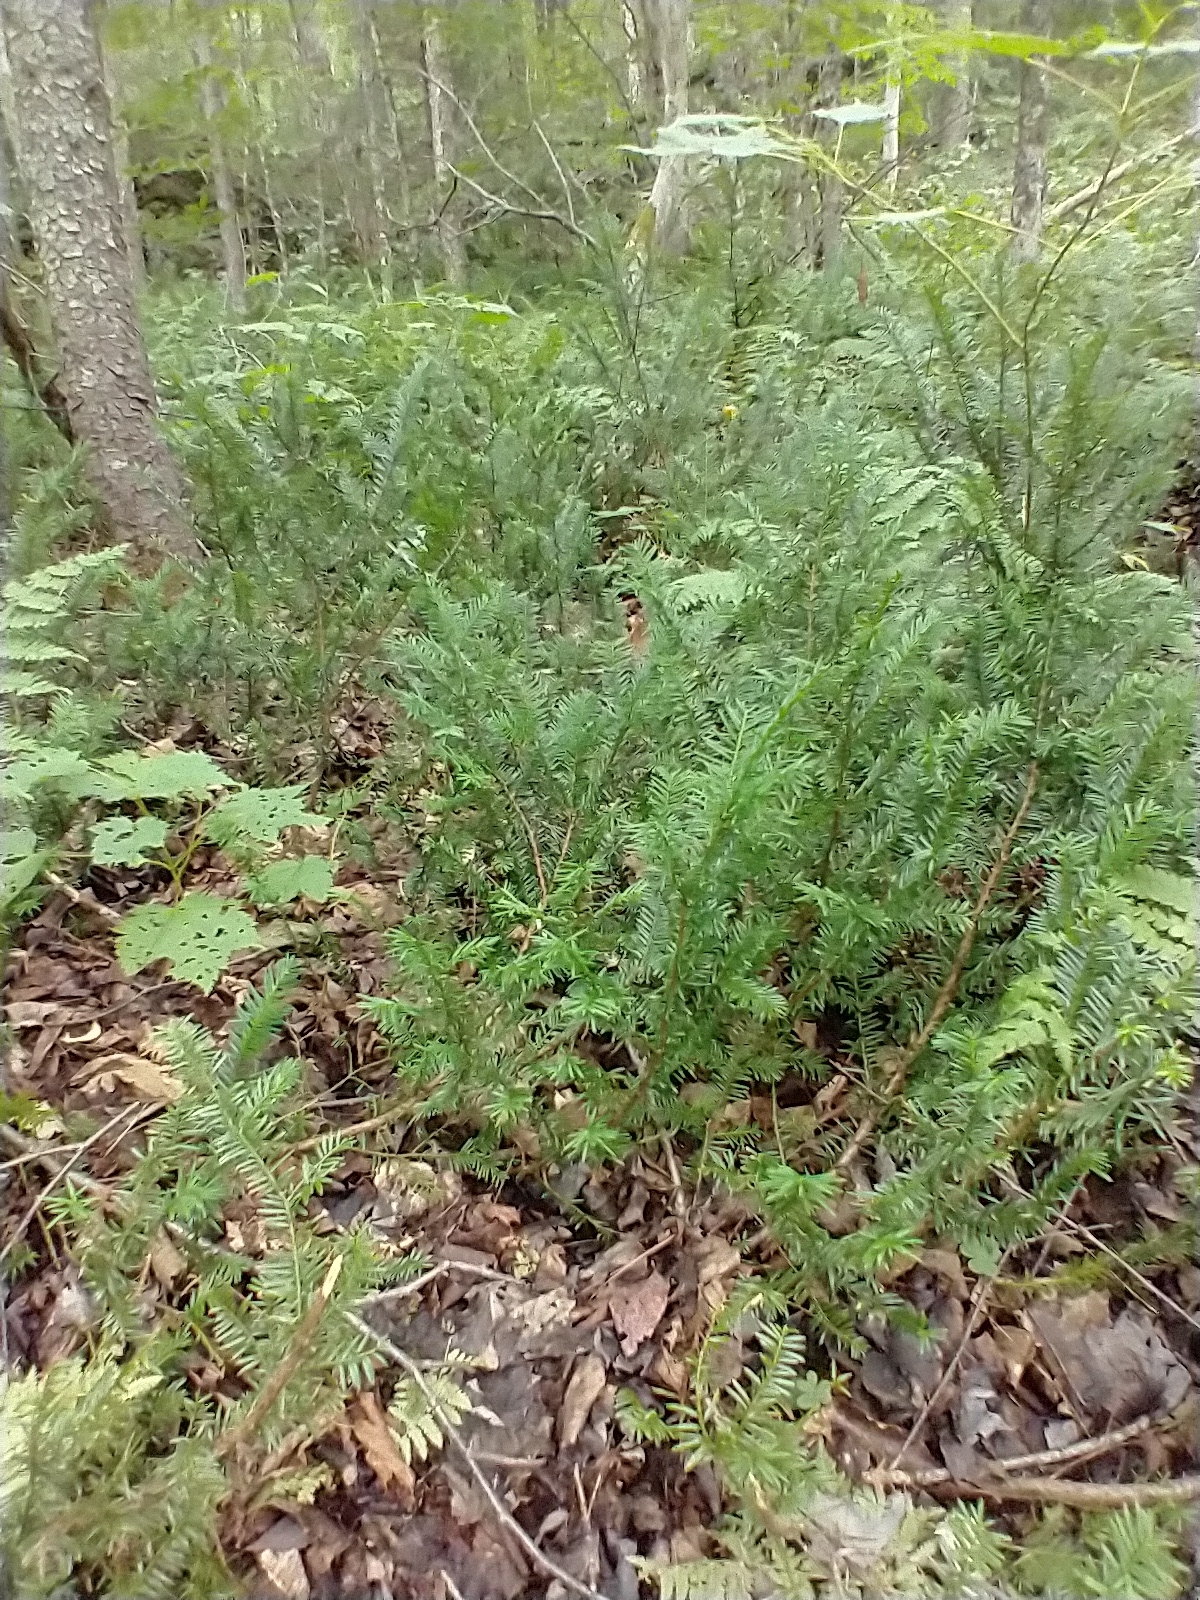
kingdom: Plantae
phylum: Tracheophyta
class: Pinopsida
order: Pinales
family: Taxaceae
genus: Taxus
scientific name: Taxus canadensis
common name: American yew
